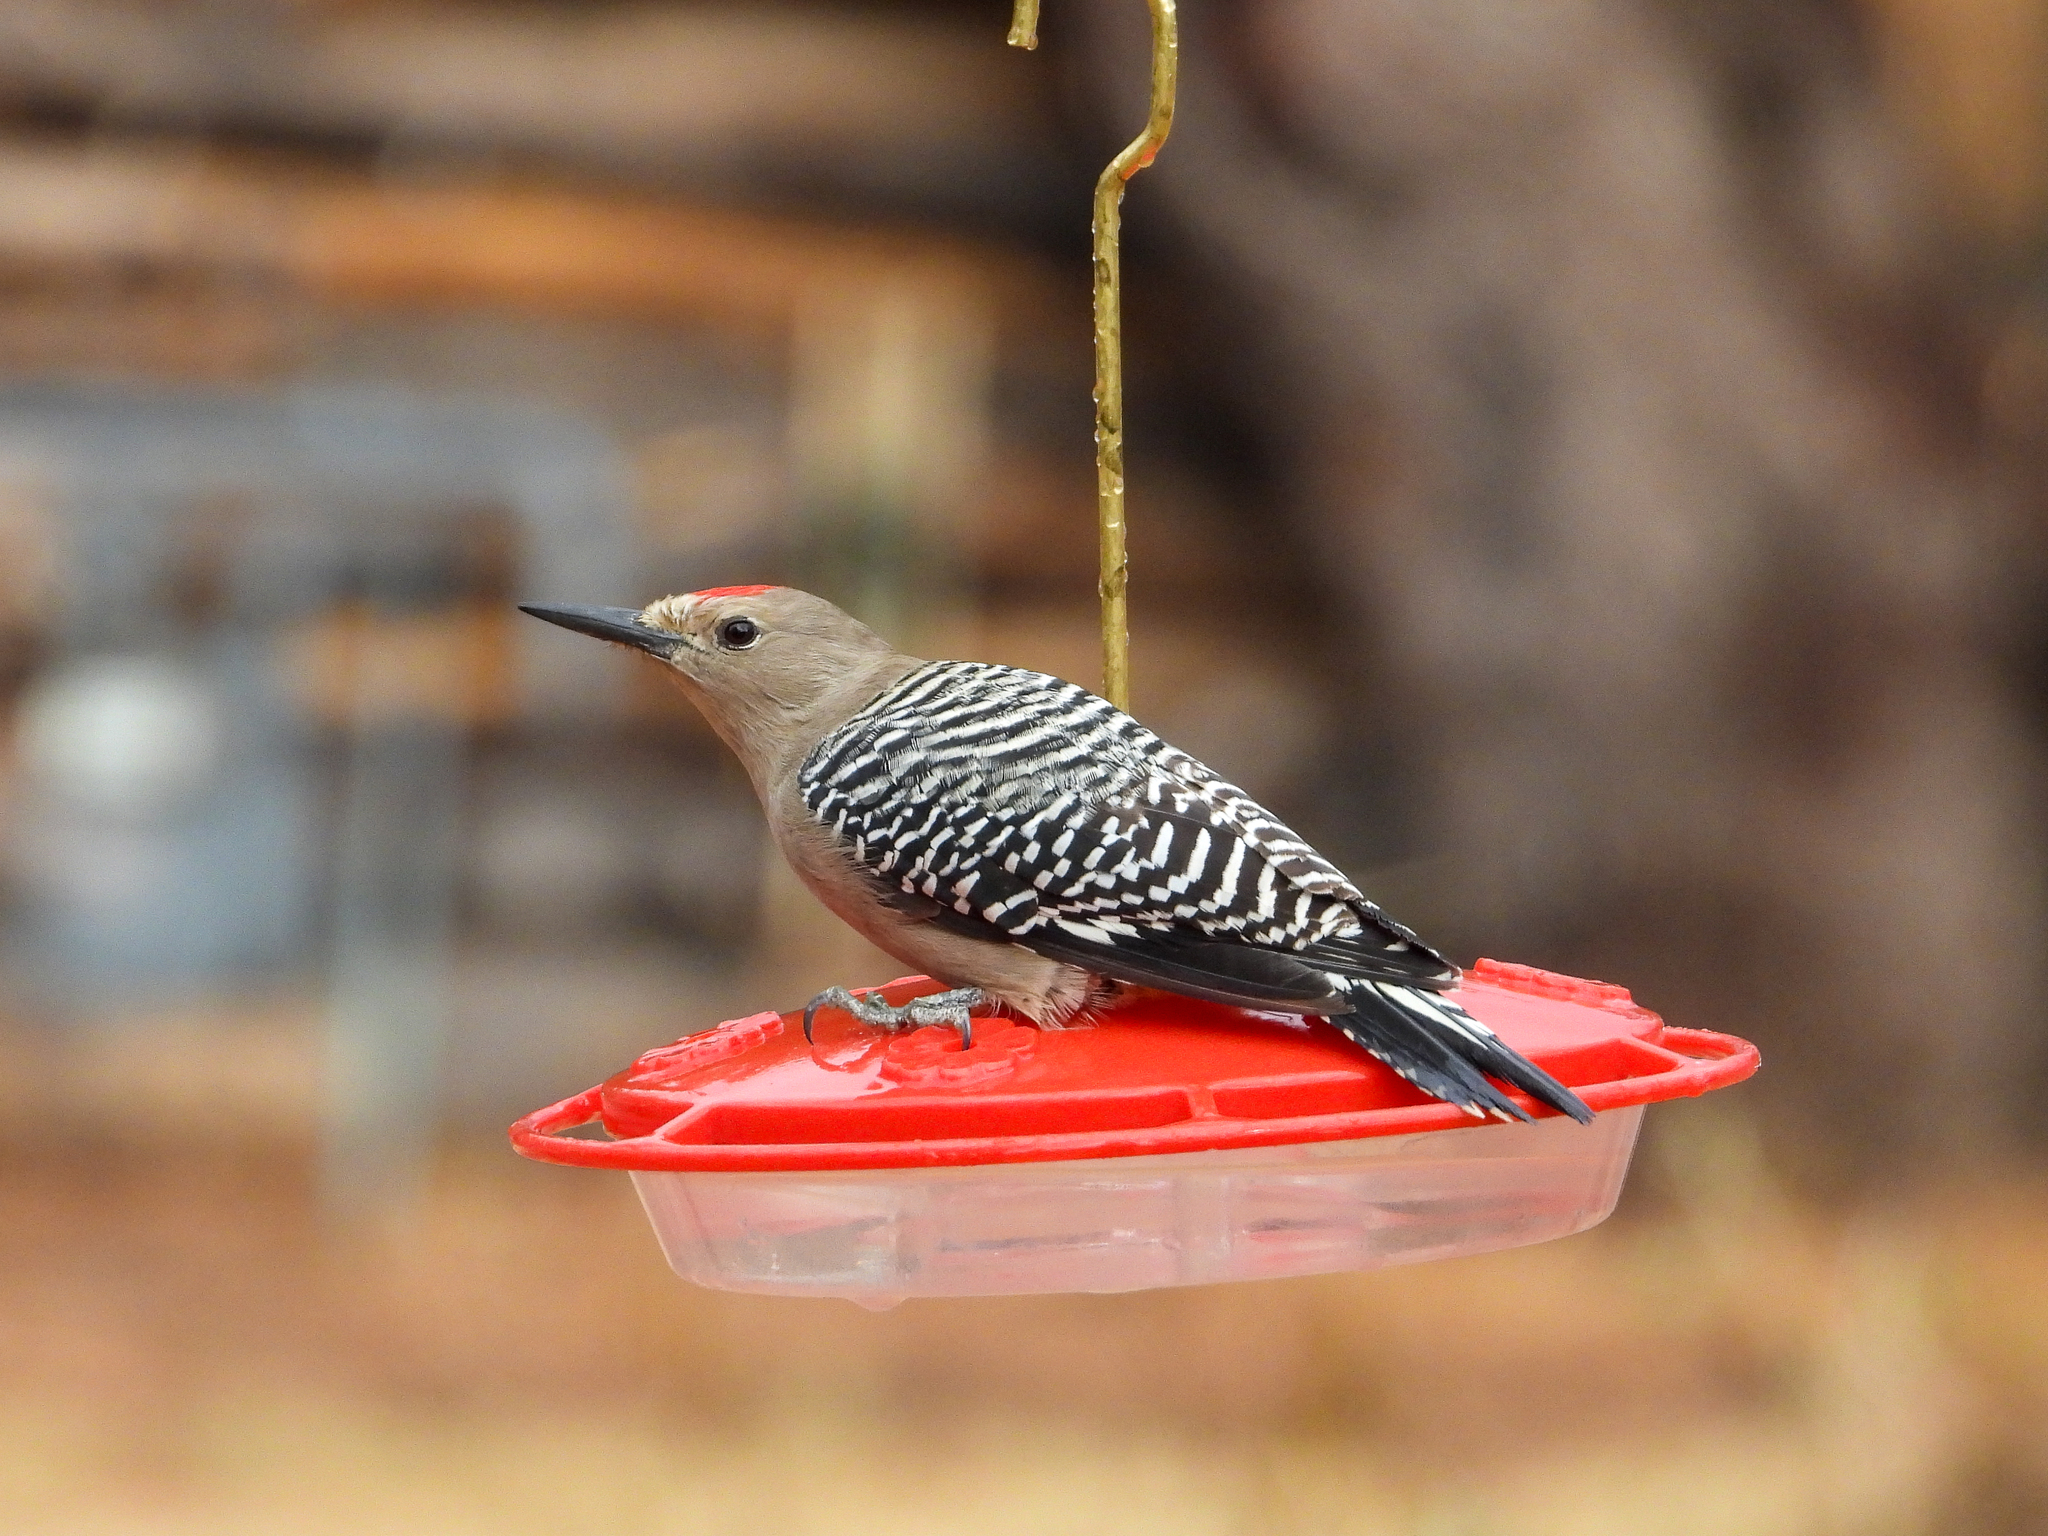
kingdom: Animalia
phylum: Chordata
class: Aves
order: Piciformes
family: Picidae
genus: Melanerpes
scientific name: Melanerpes uropygialis
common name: Gila woodpecker
